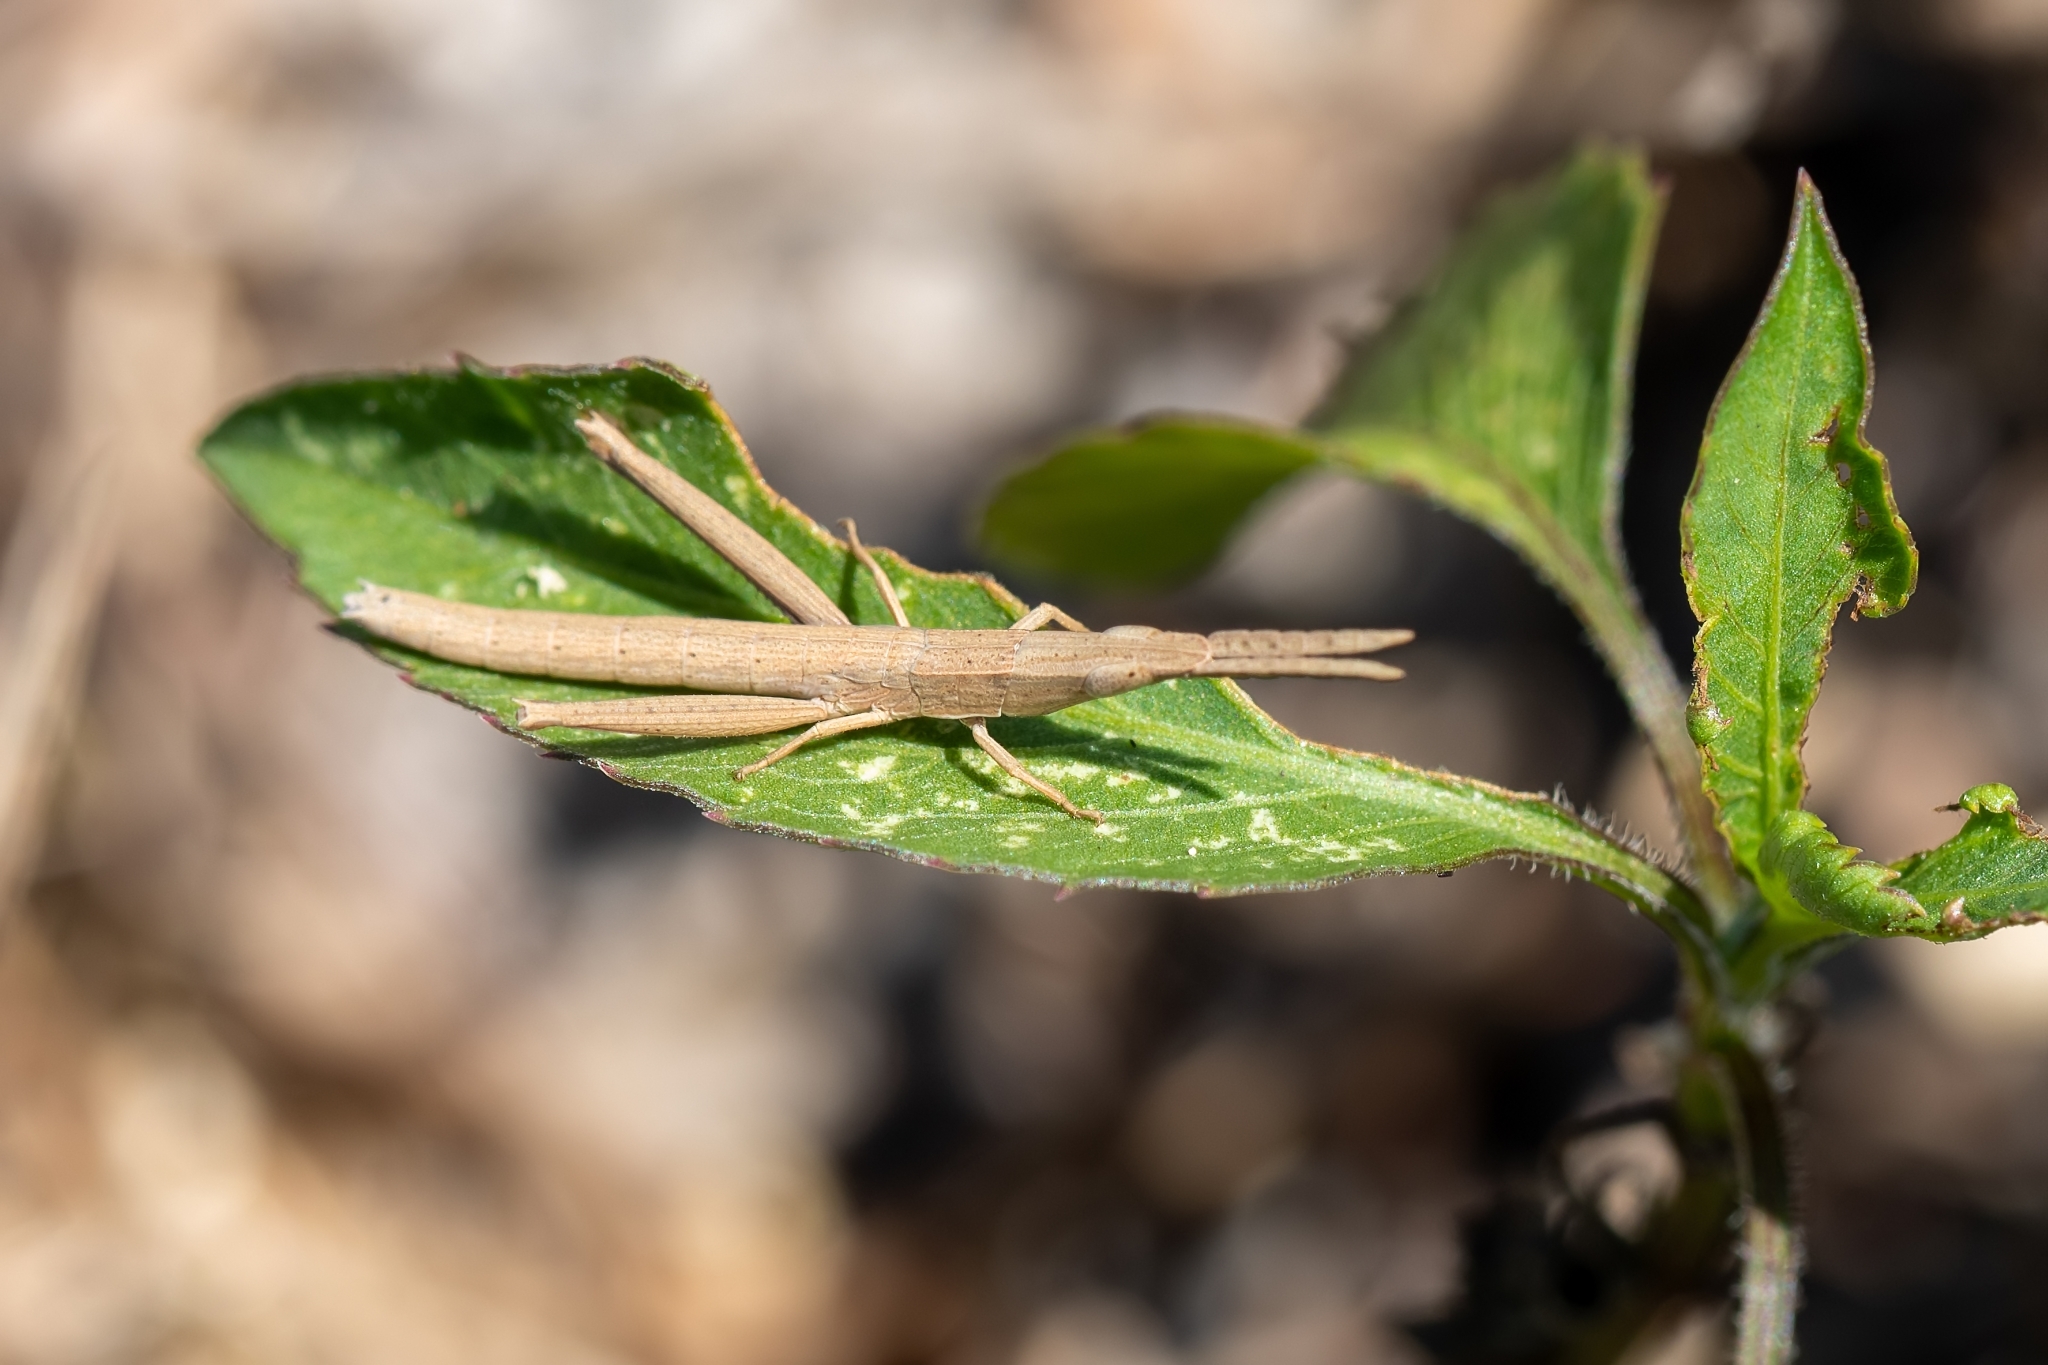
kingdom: Animalia
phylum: Arthropoda
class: Insecta
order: Orthoptera
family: Acrididae
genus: Achurum
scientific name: Achurum carinatum
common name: Long-headed toothpick grasshopper
